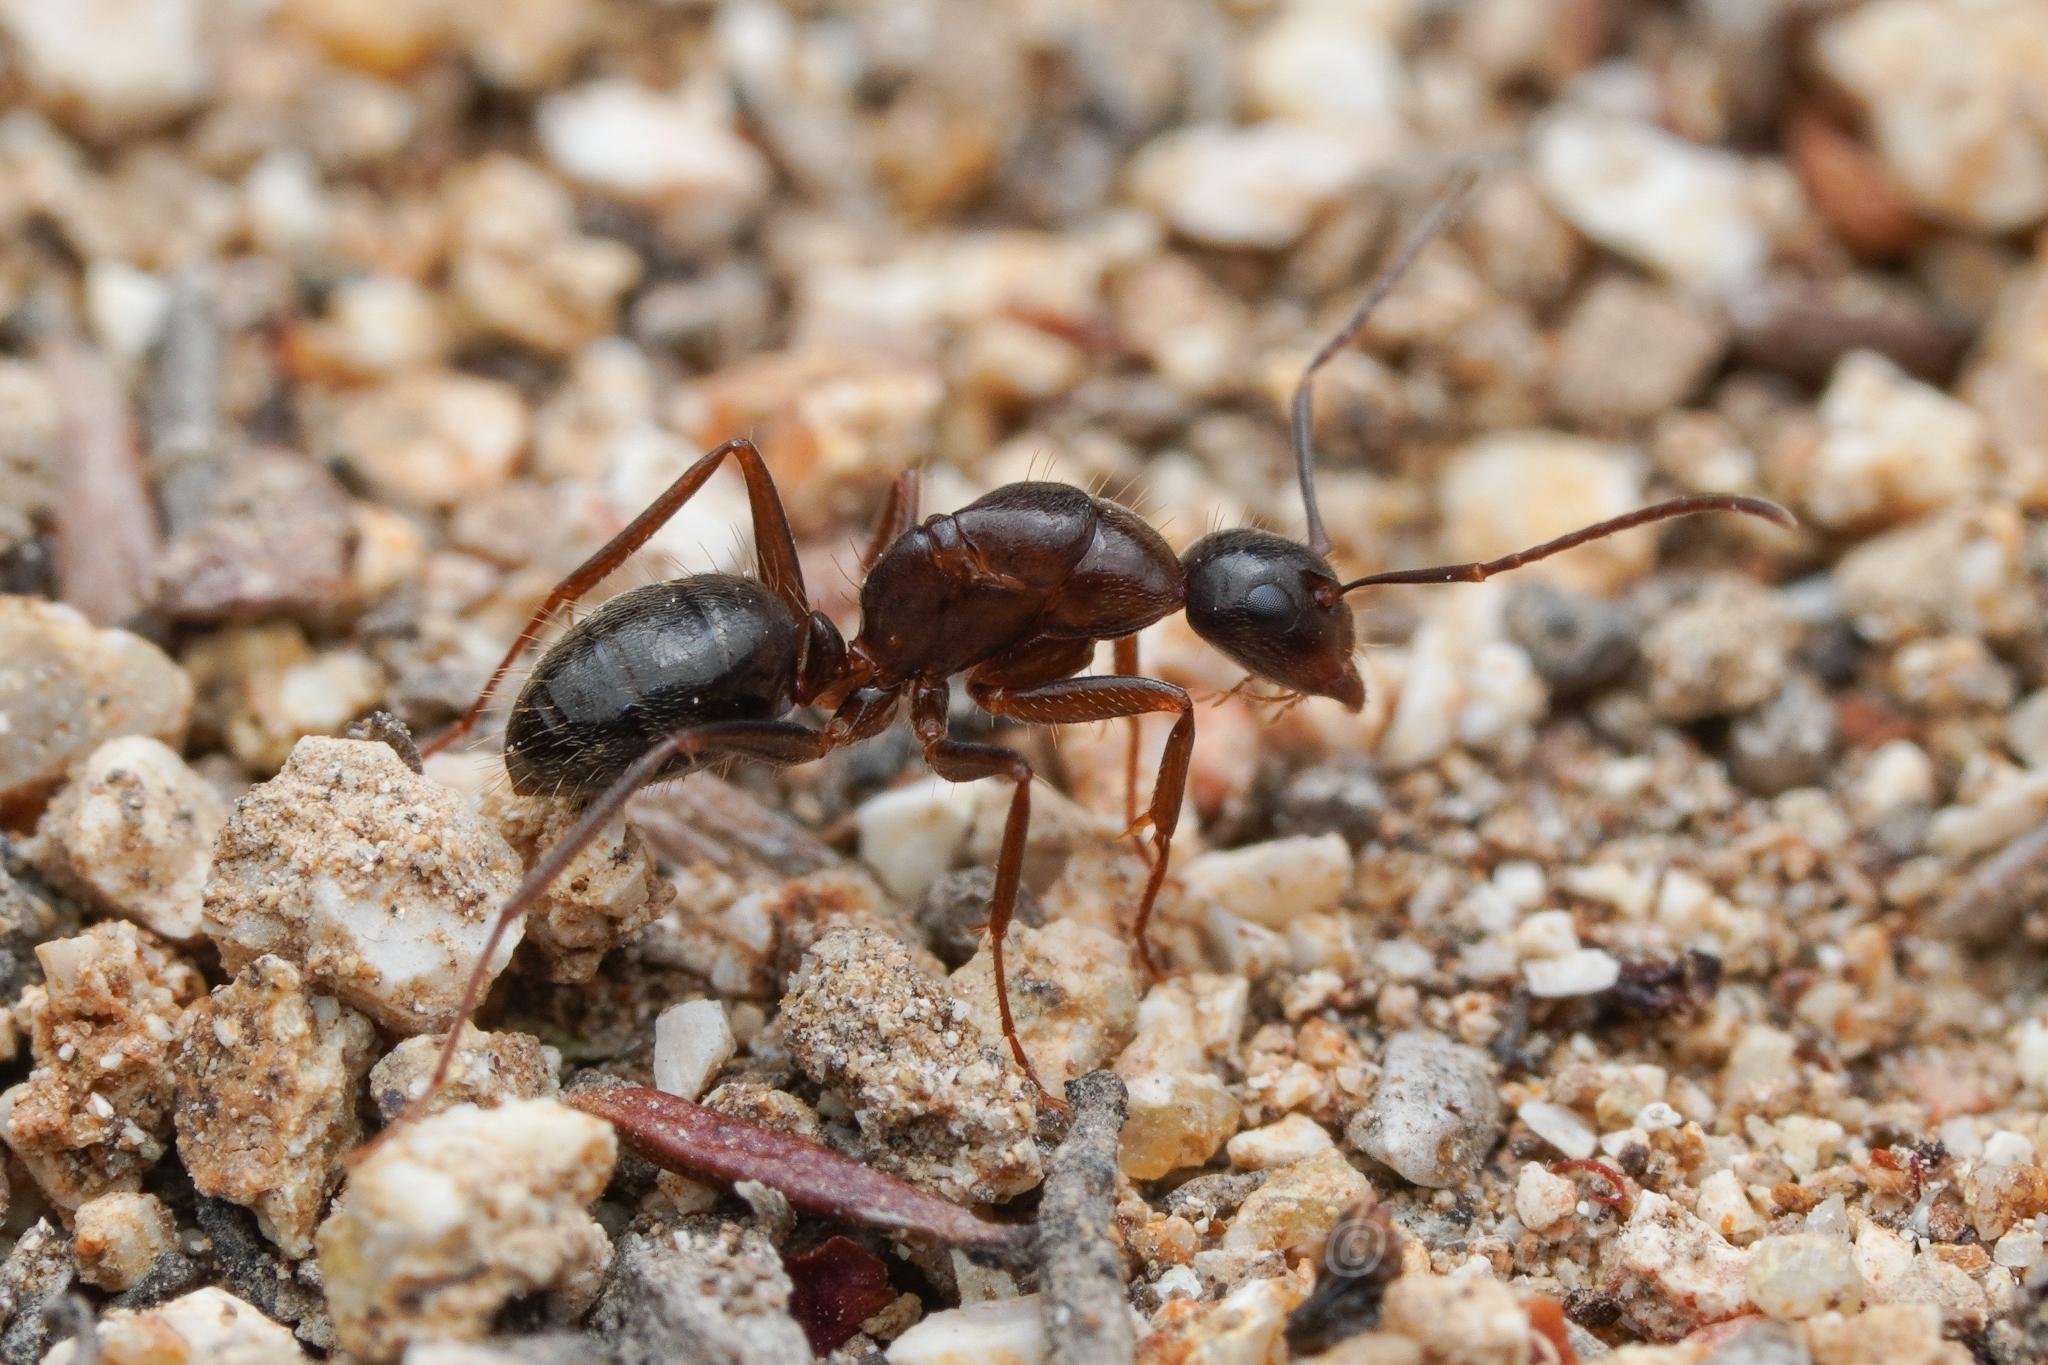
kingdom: Animalia
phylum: Arthropoda
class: Insecta
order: Hymenoptera
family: Formicidae
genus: Camponotus
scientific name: Camponotus dumetorum
